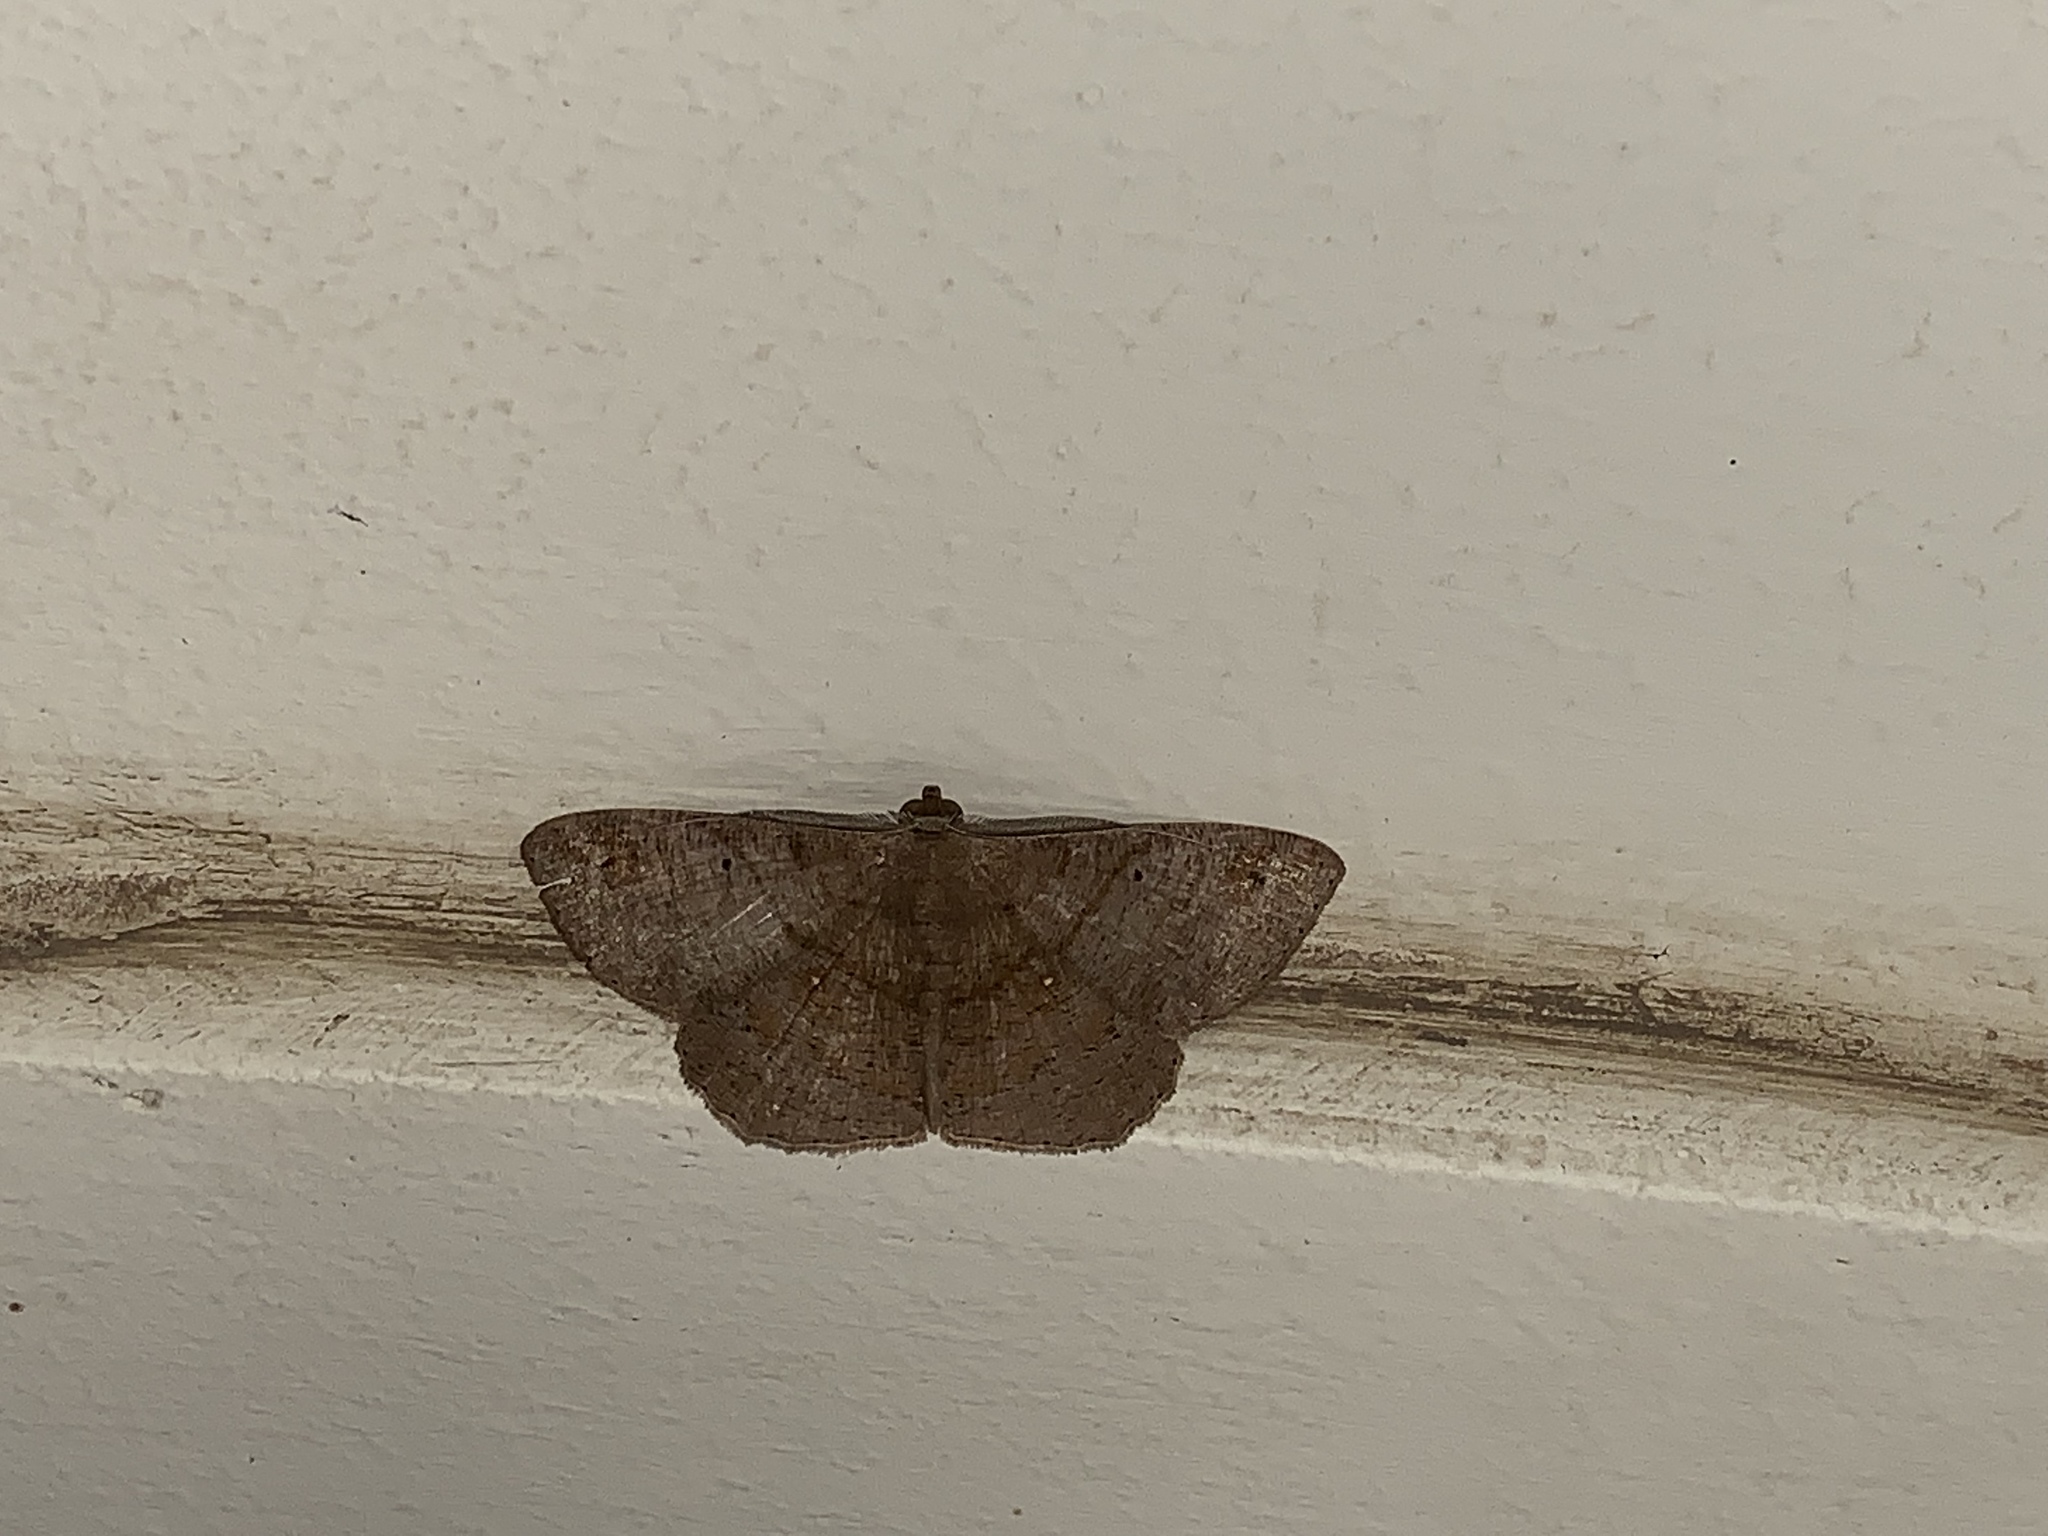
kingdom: Animalia
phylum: Arthropoda
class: Insecta
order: Lepidoptera
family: Geometridae
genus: Petelia
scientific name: Petelia medardaria
